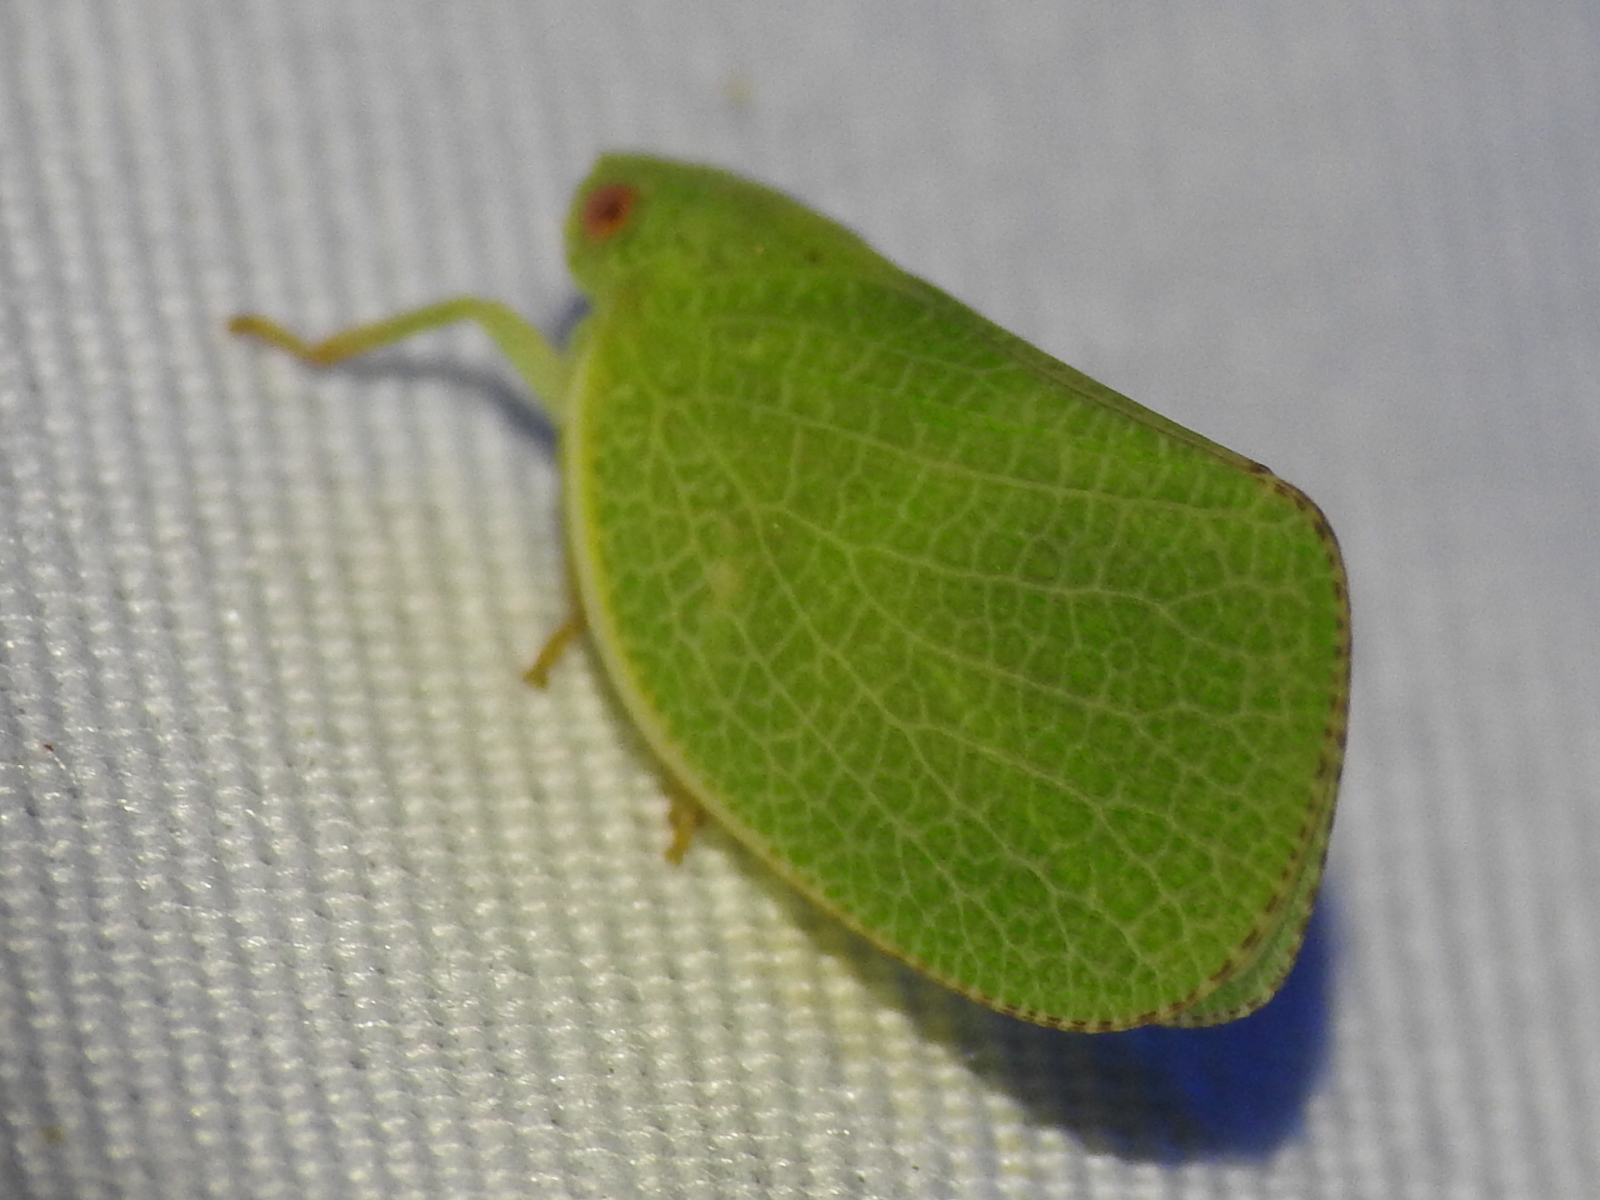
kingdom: Animalia
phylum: Arthropoda
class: Insecta
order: Hemiptera
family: Acanaloniidae
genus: Acanalonia
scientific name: Acanalonia conica
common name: Green cone-headed planthopper
